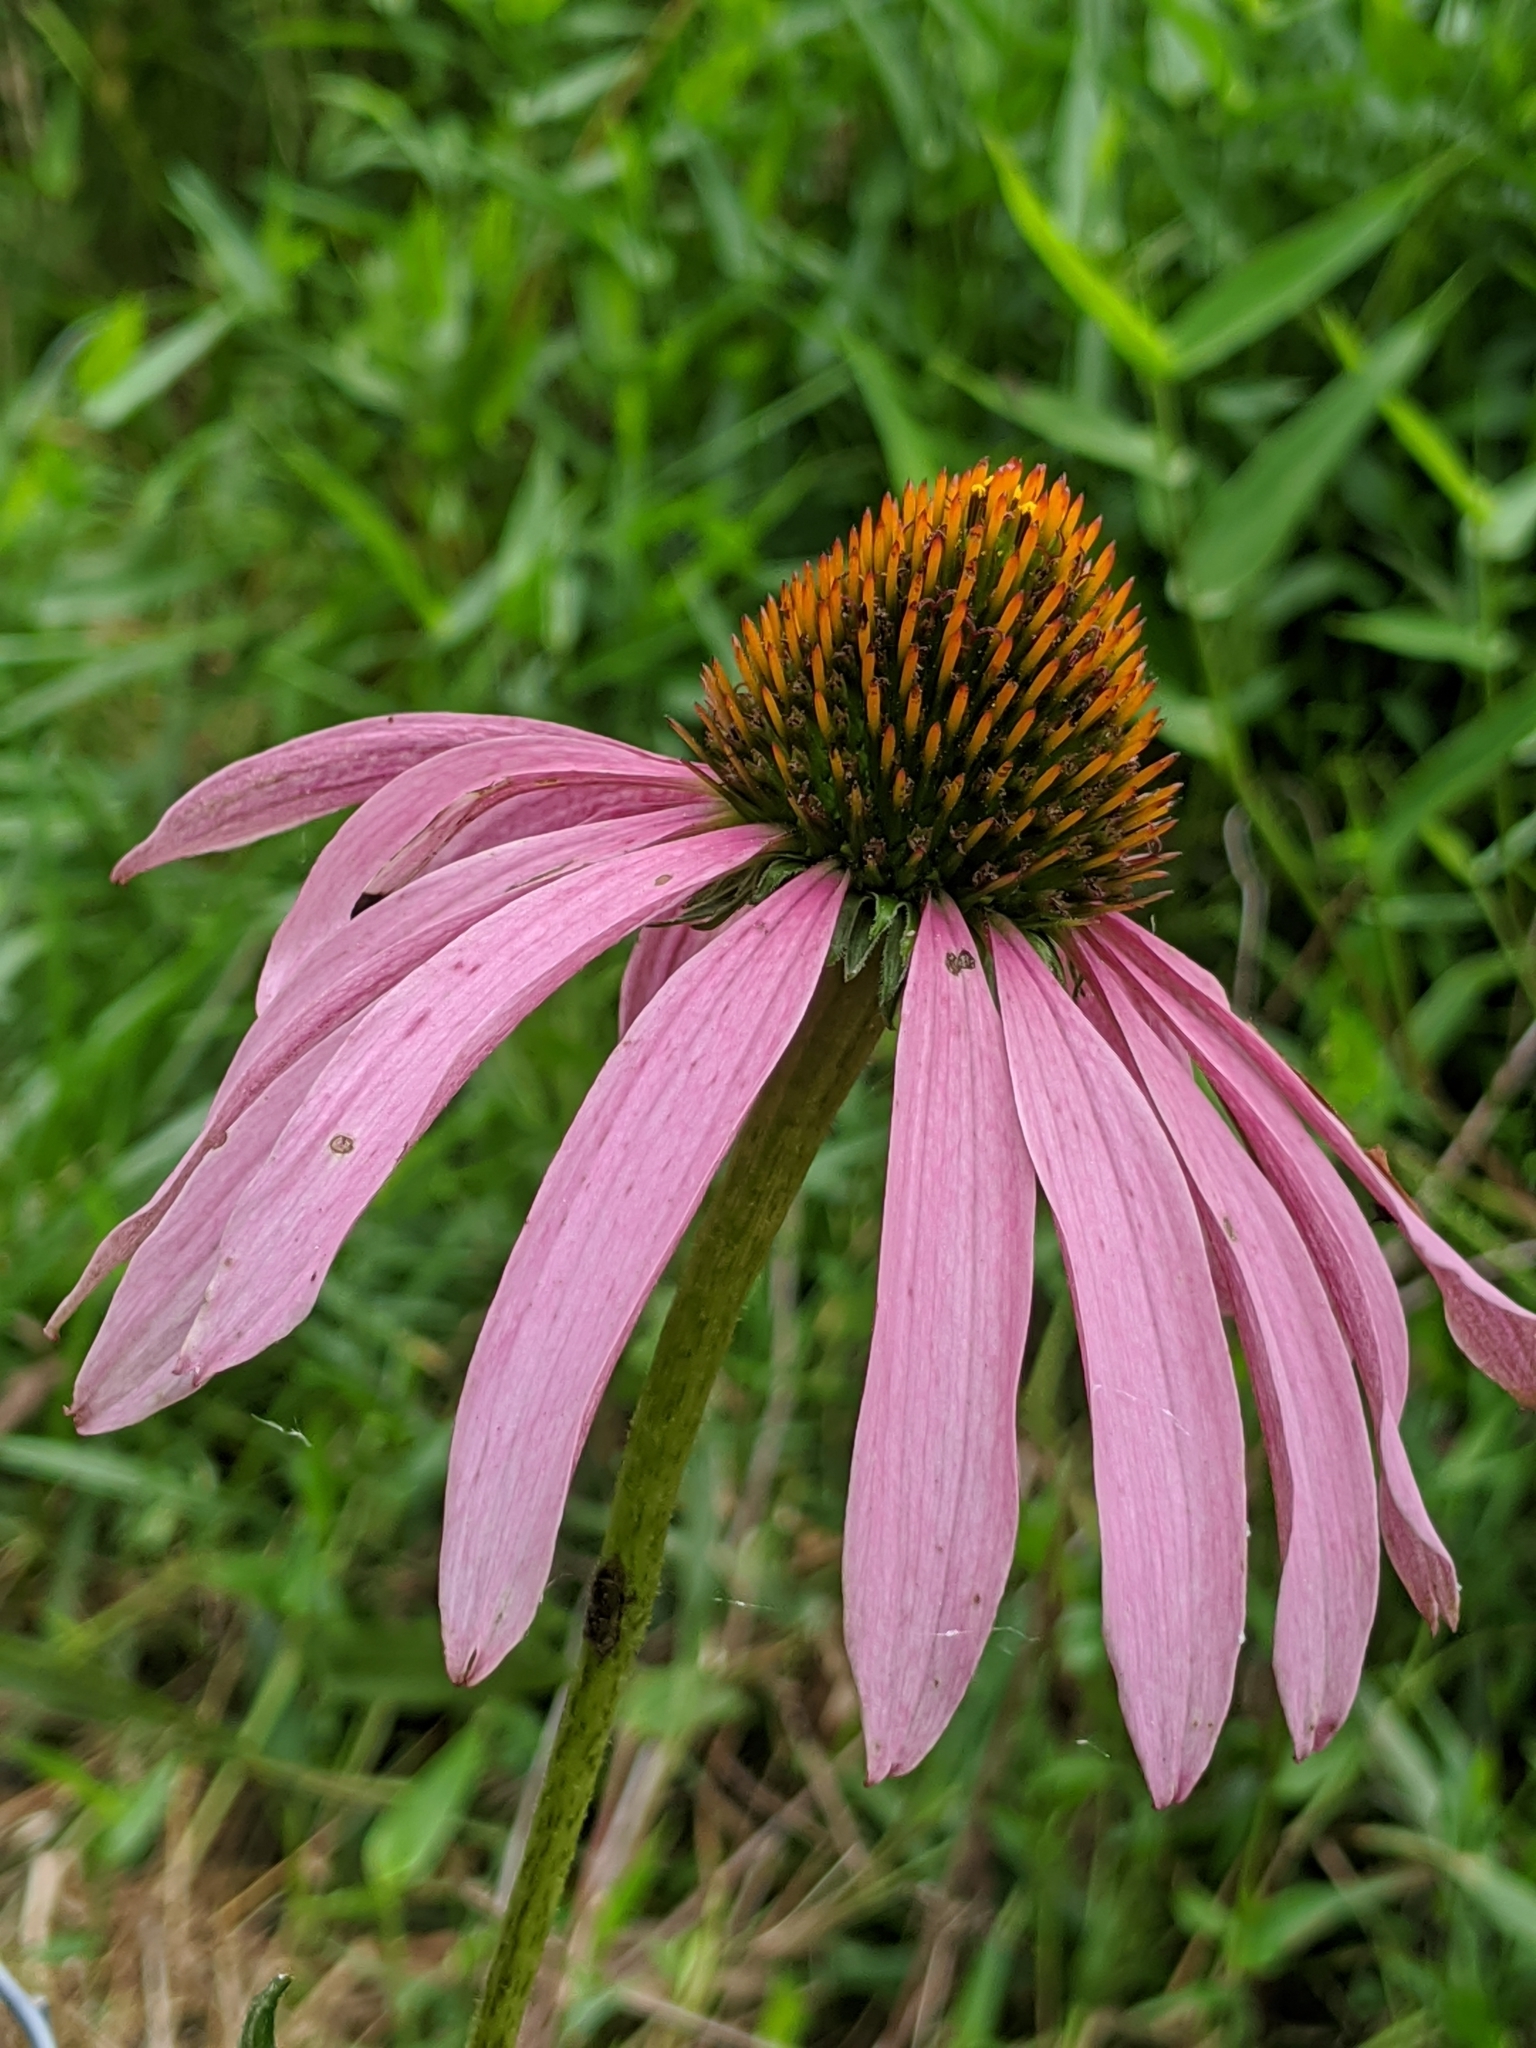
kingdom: Plantae
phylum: Tracheophyta
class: Magnoliopsida
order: Asterales
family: Asteraceae
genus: Echinacea
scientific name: Echinacea purpurea
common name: Broad-leaved purple coneflower
